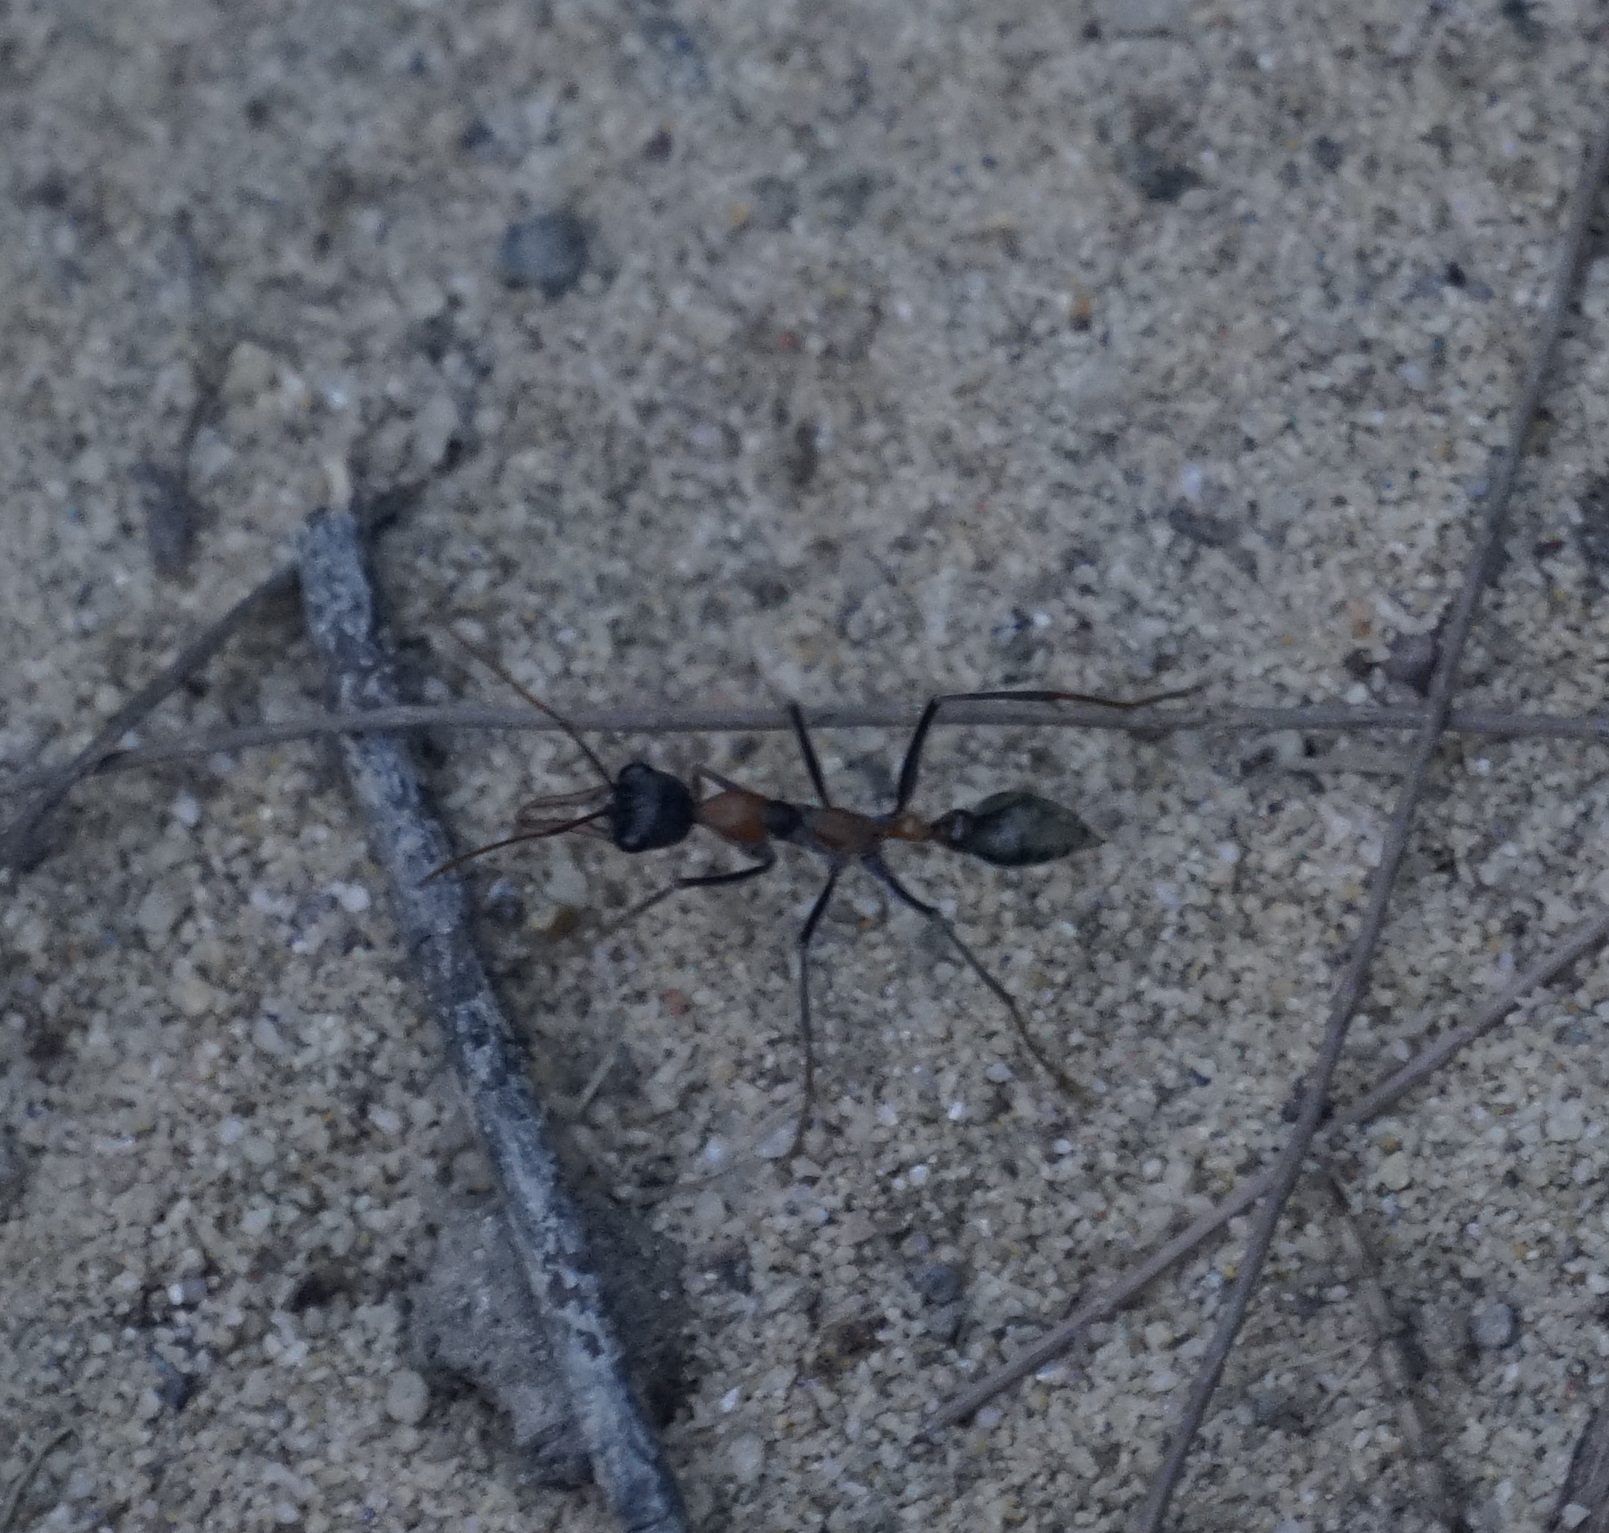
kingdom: Animalia
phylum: Arthropoda
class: Insecta
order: Hymenoptera
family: Formicidae
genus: Myrmecia
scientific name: Myrmecia nigrocincta
